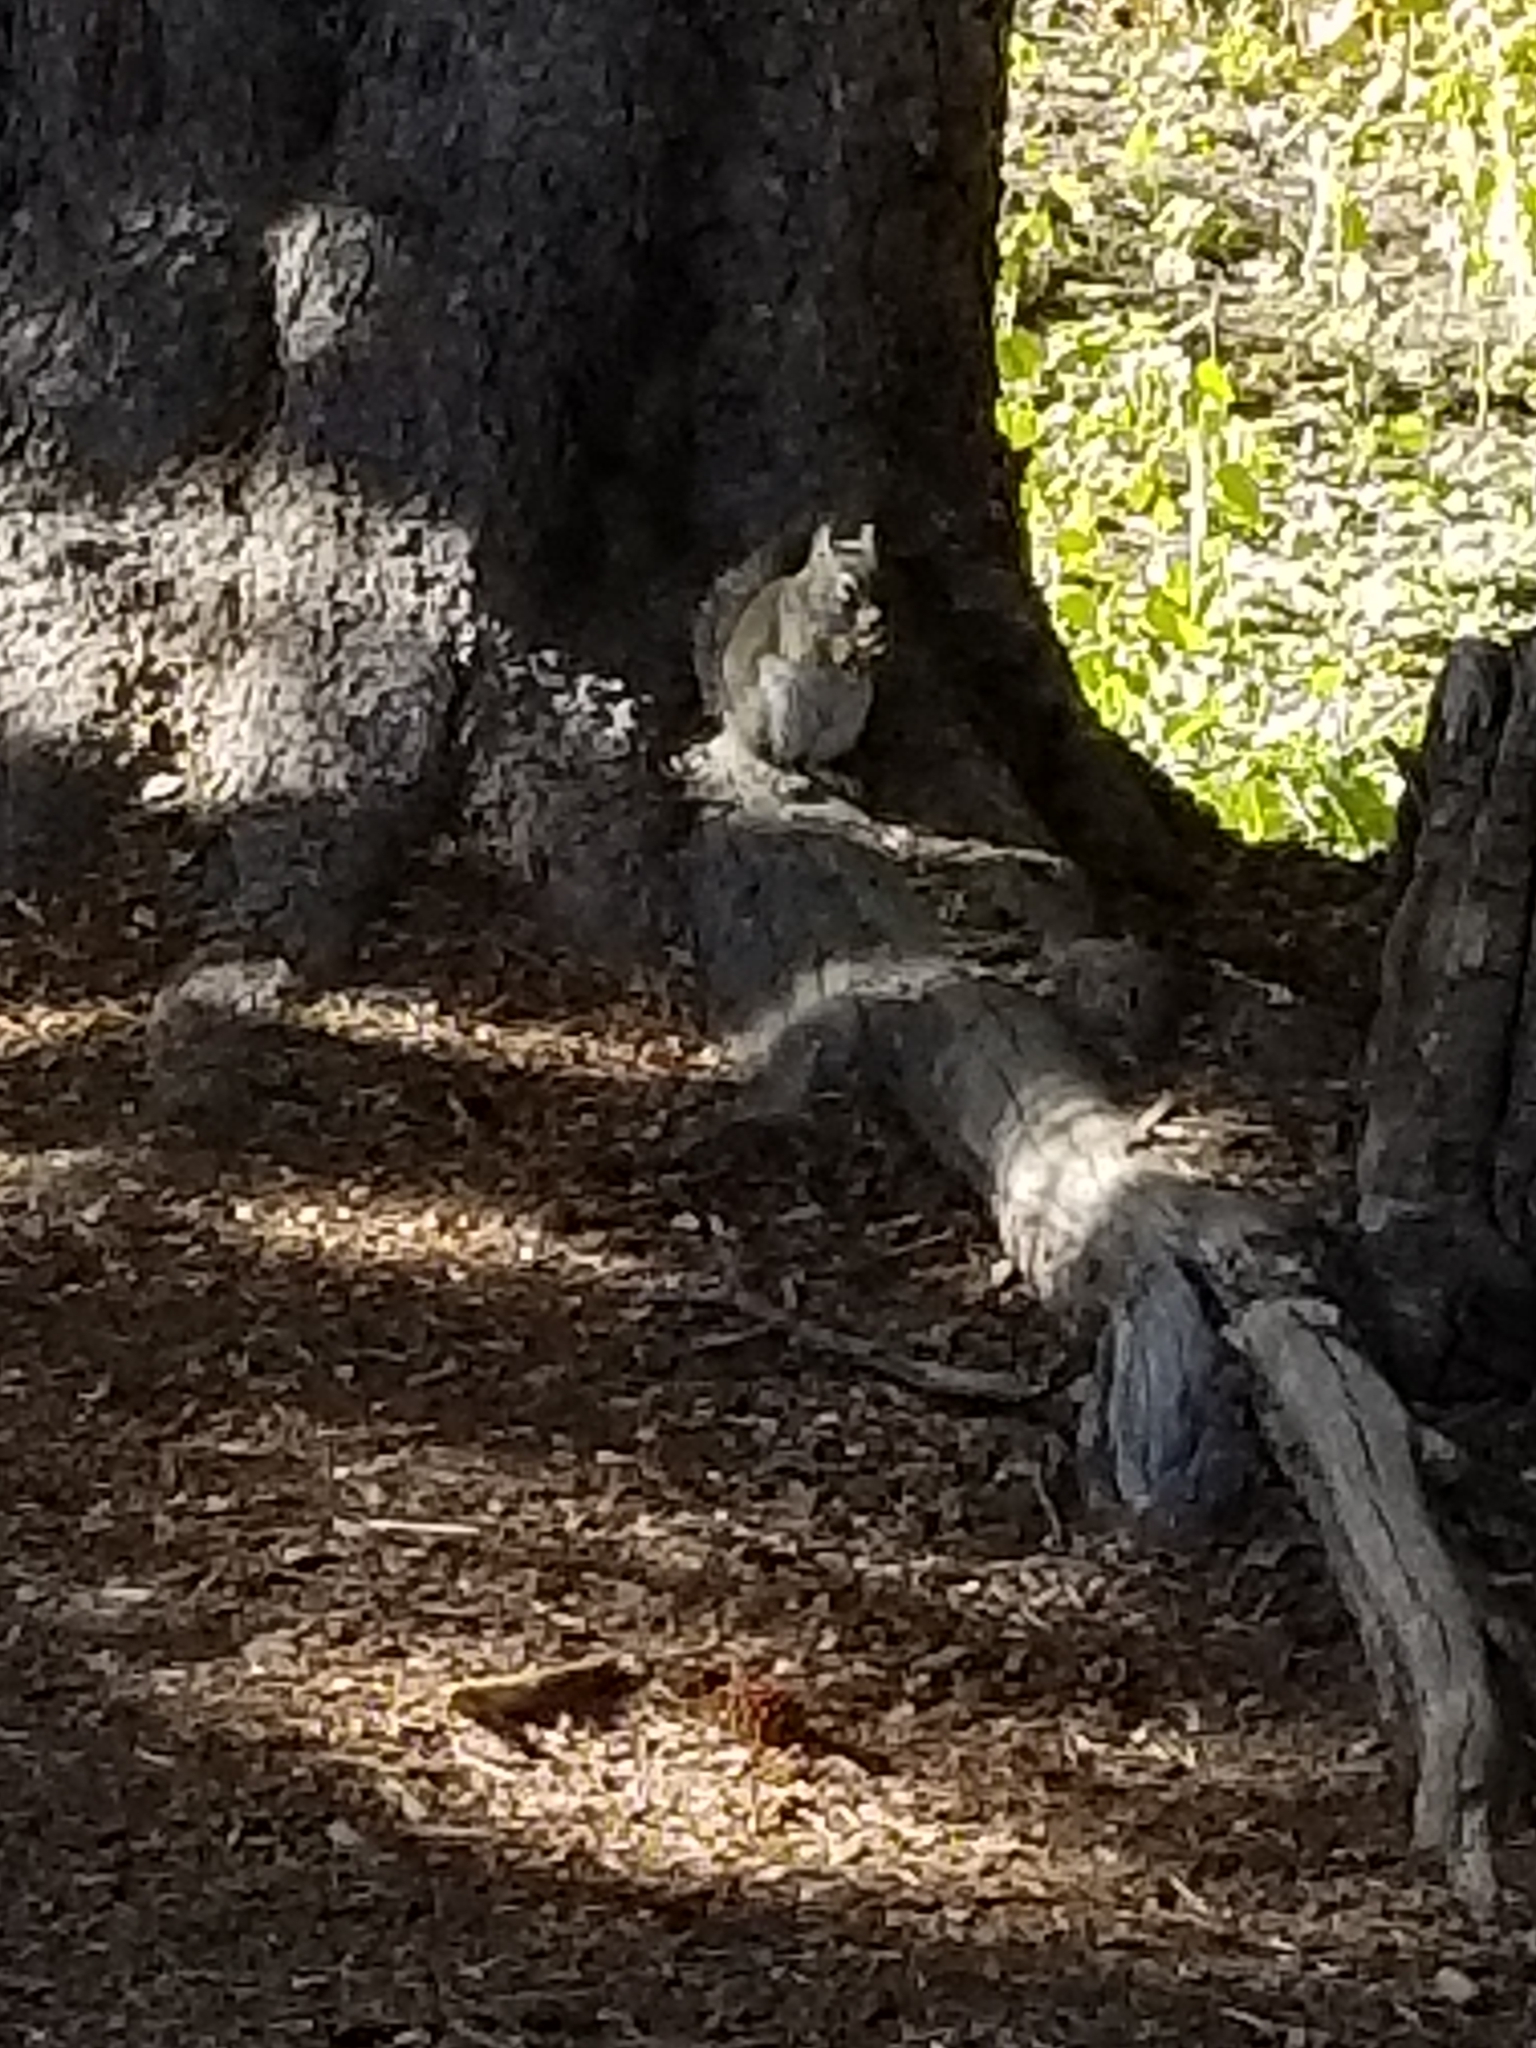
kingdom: Animalia
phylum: Chordata
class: Mammalia
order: Rodentia
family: Sciuridae
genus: Tamiasciurus
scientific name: Tamiasciurus hudsonicus
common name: Red squirrel
